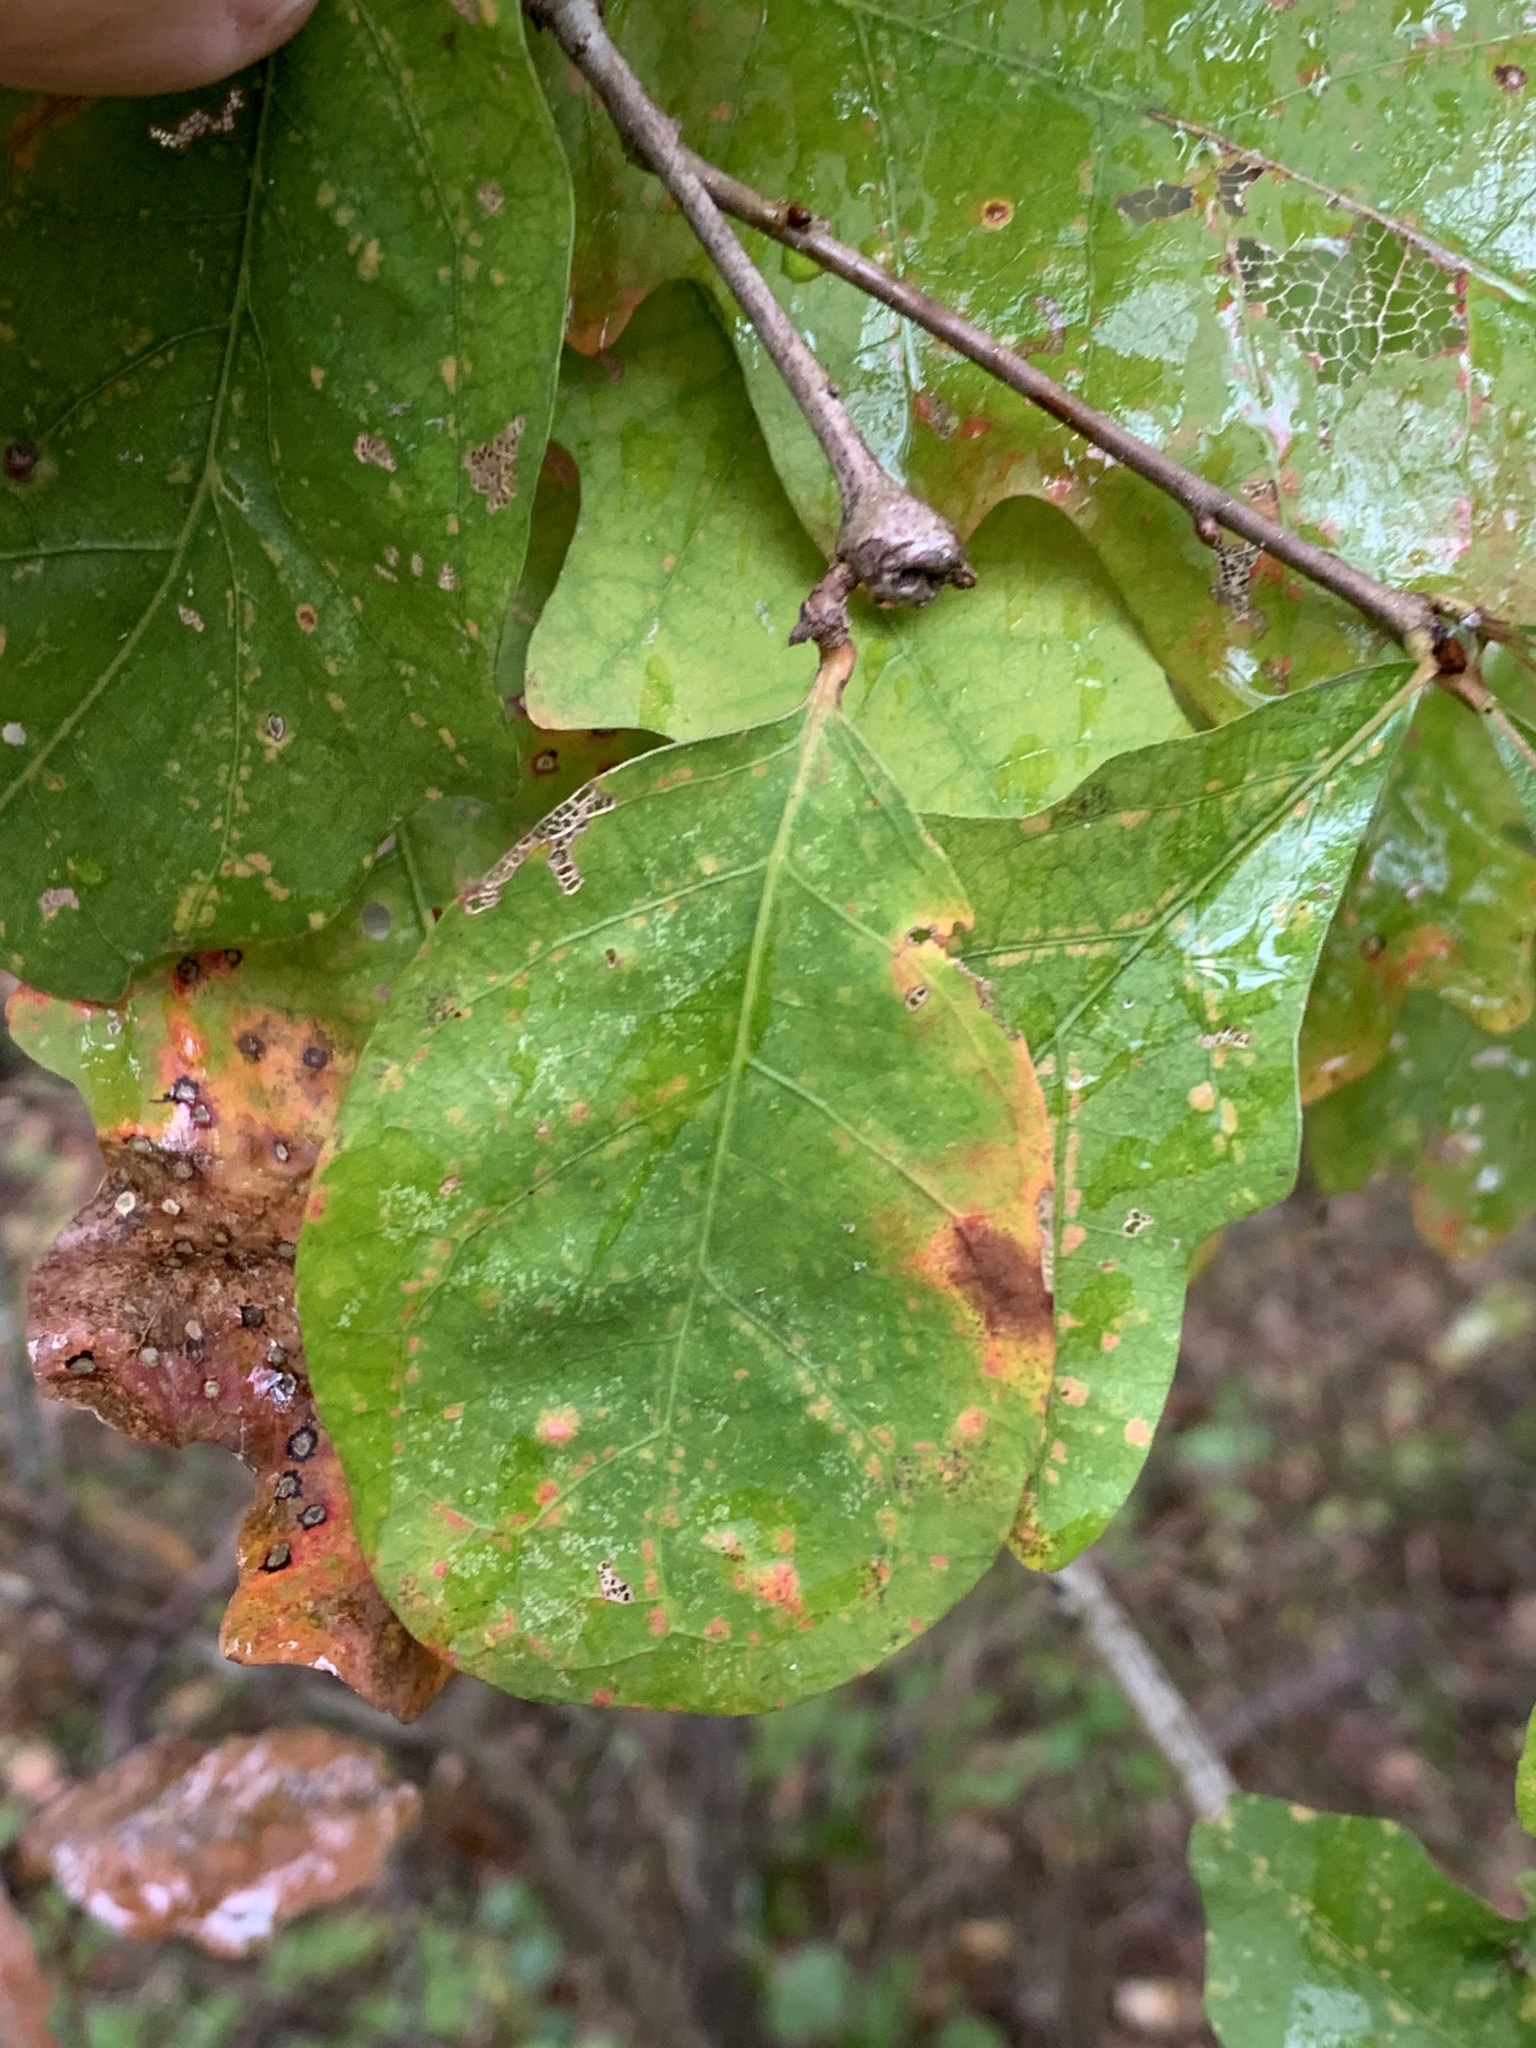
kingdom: Plantae
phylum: Tracheophyta
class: Magnoliopsida
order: Fagales
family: Fagaceae
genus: Quercus
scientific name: Quercus alba
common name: White oak
